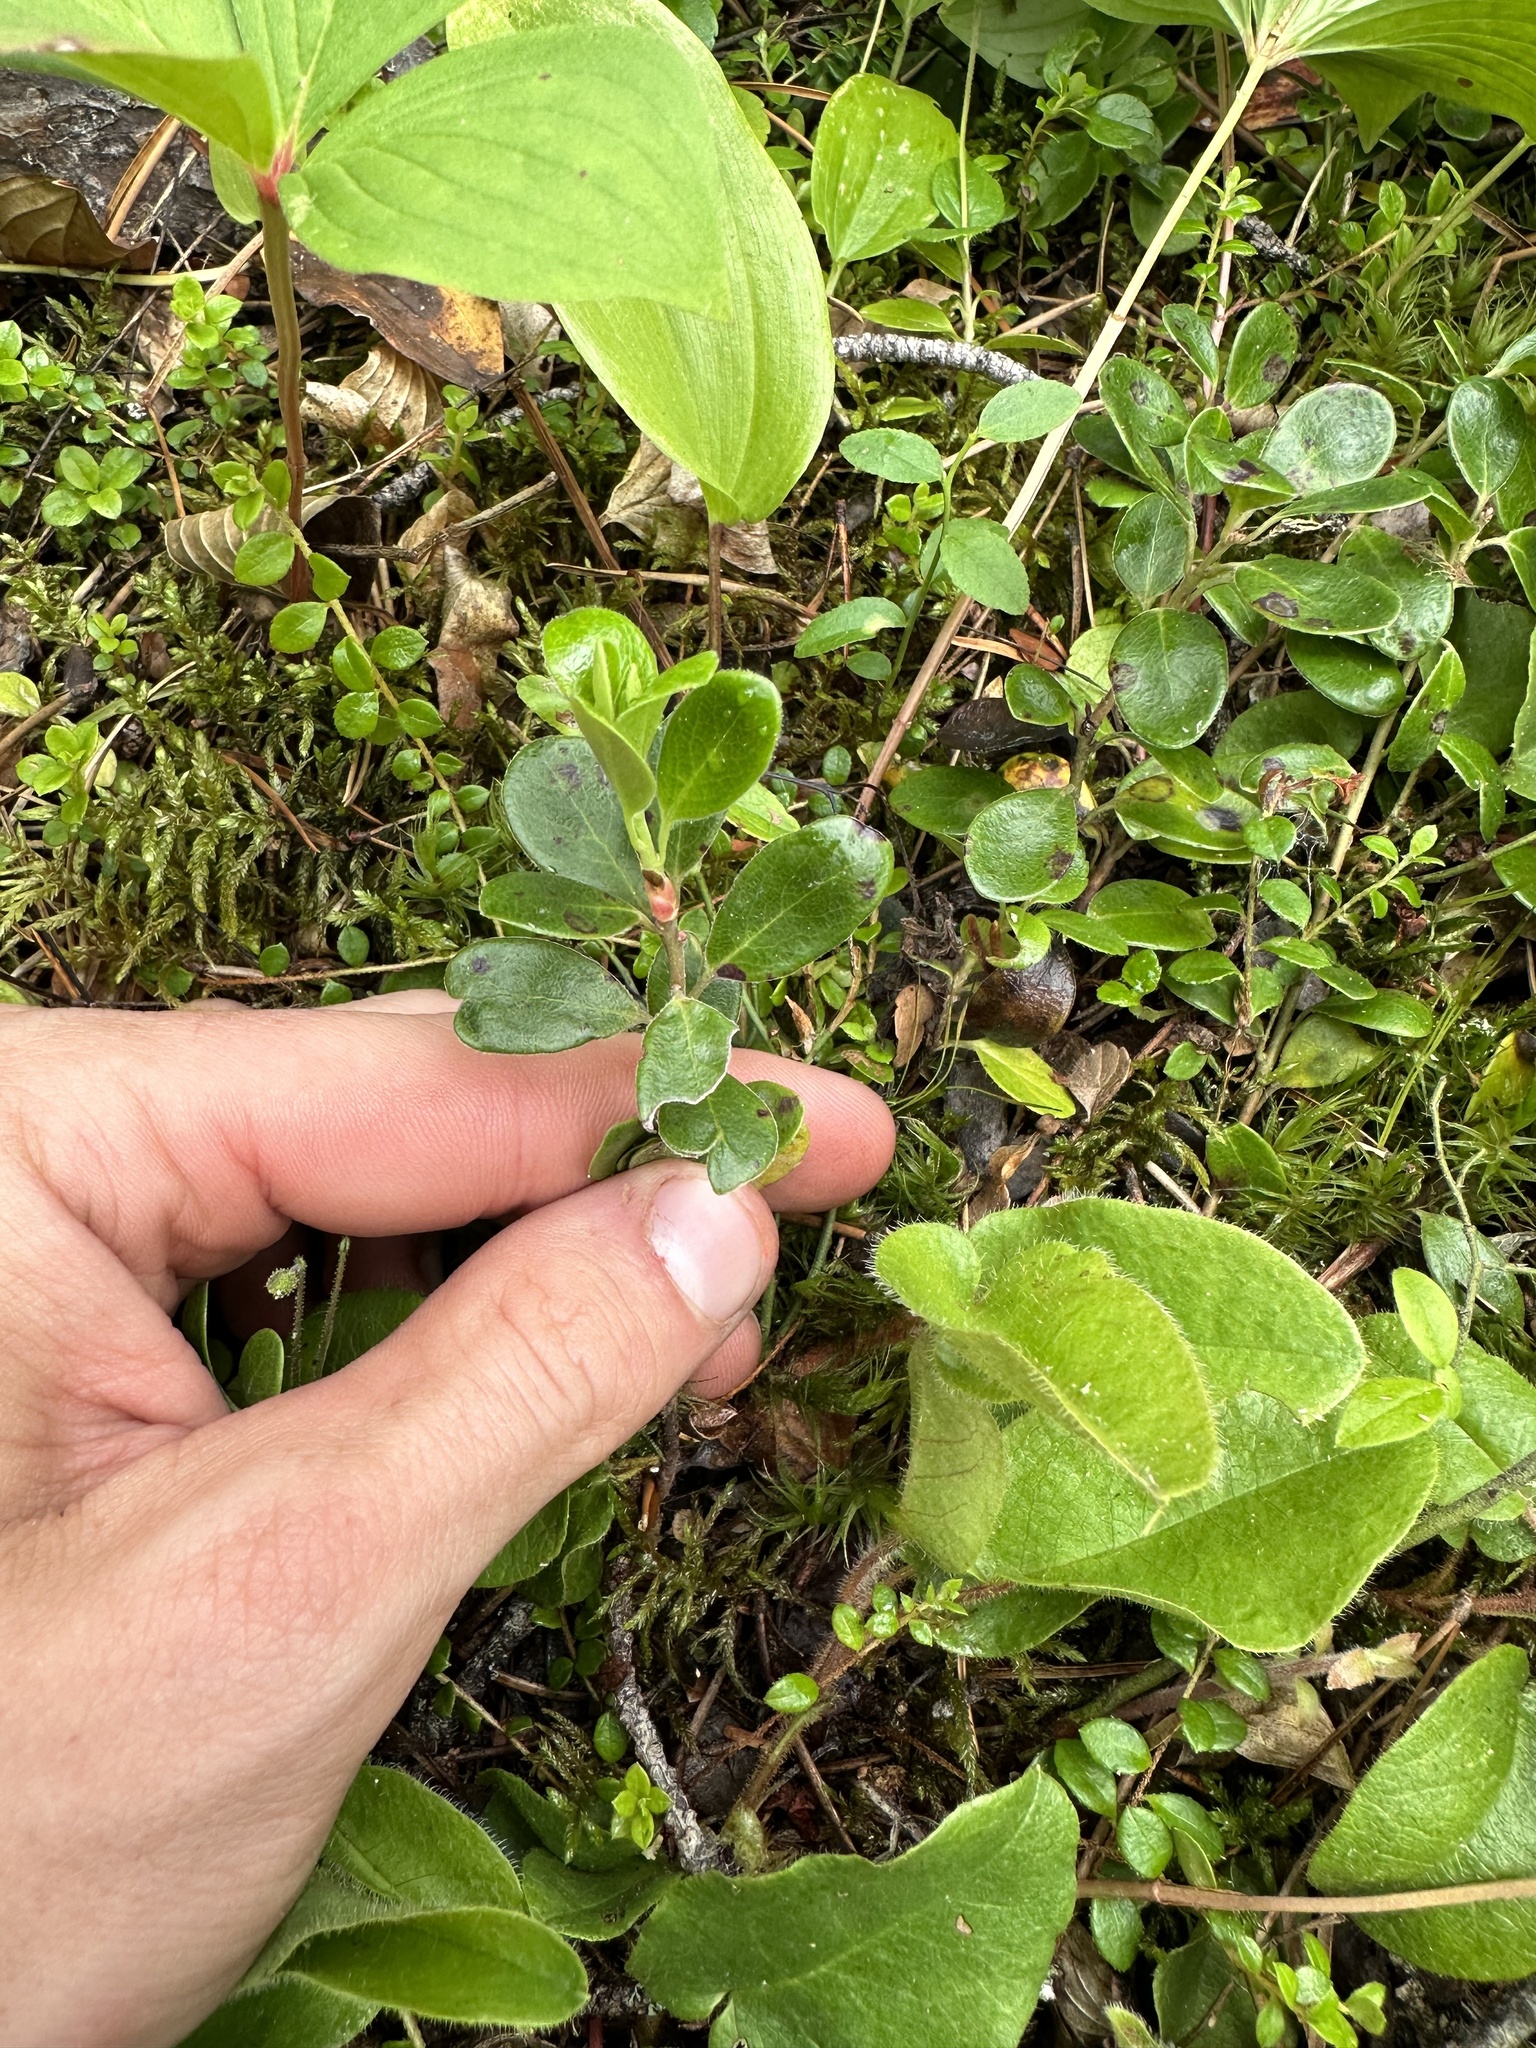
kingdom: Plantae
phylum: Tracheophyta
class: Magnoliopsida
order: Ericales
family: Ericaceae
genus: Arctostaphylos
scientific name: Arctostaphylos uva-ursi
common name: Bearberry
